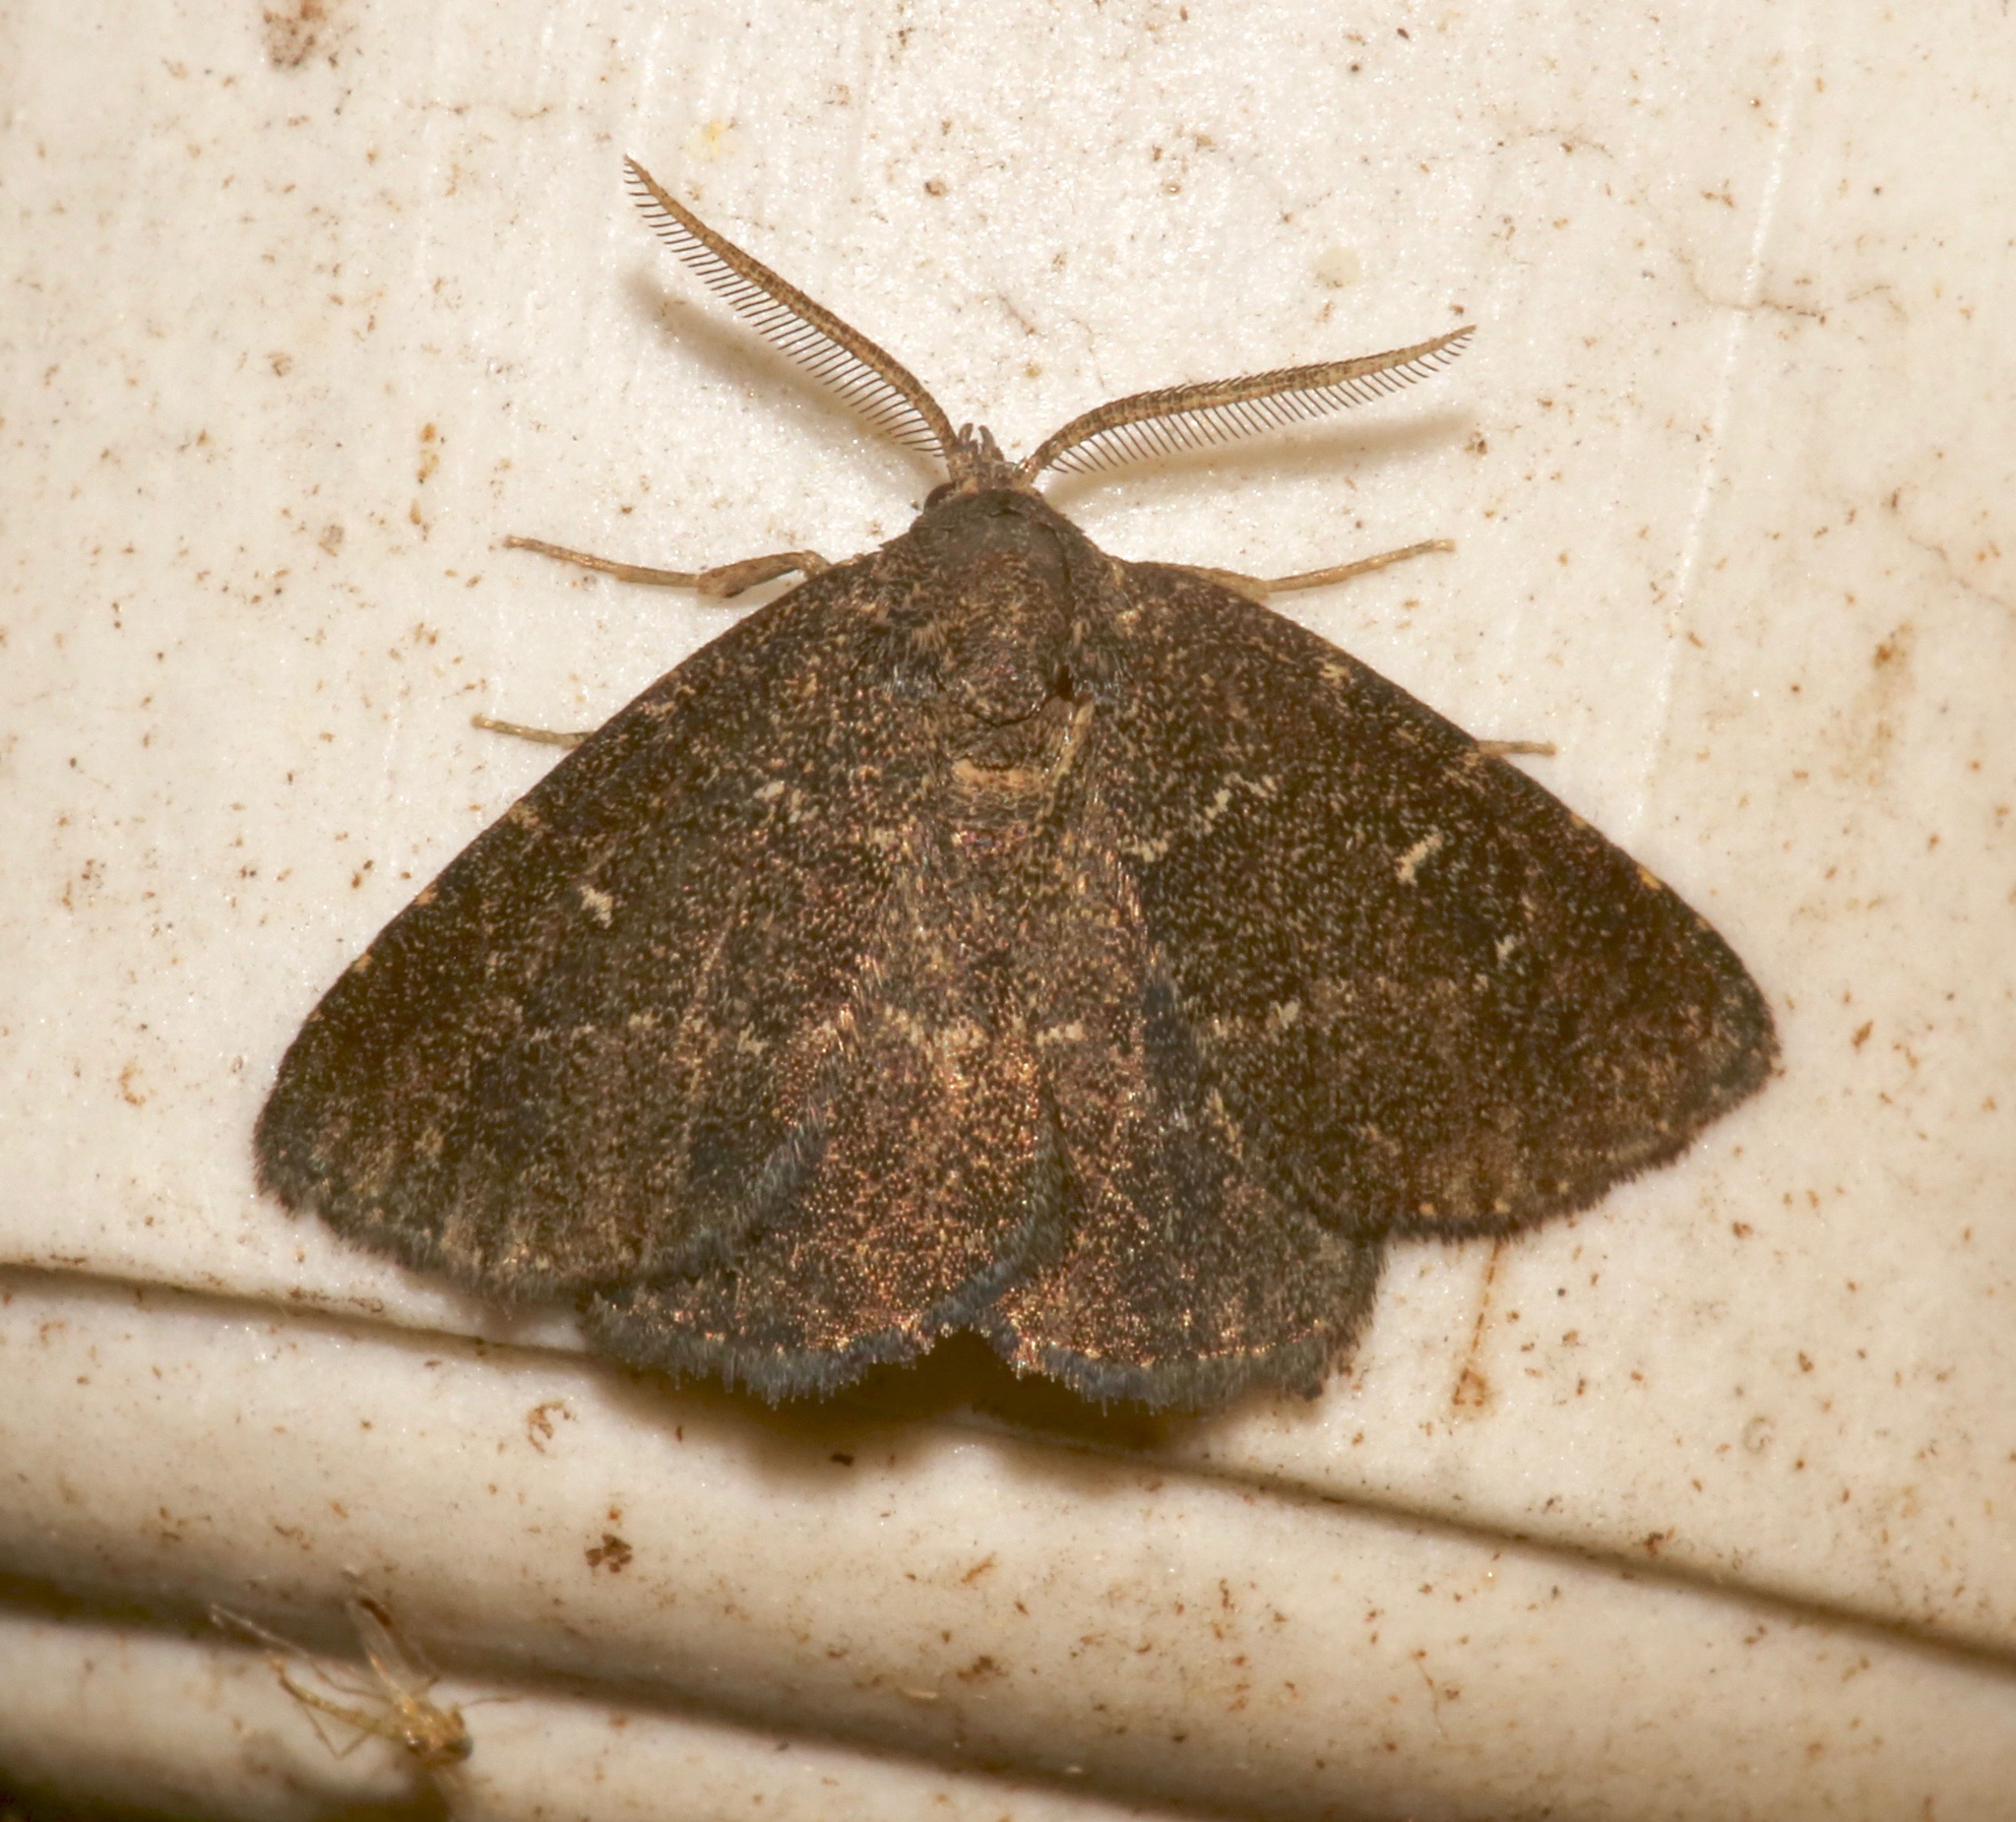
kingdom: Animalia
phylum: Arthropoda
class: Insecta
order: Lepidoptera
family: Erebidae
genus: Prosoparia
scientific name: Prosoparia floridana
